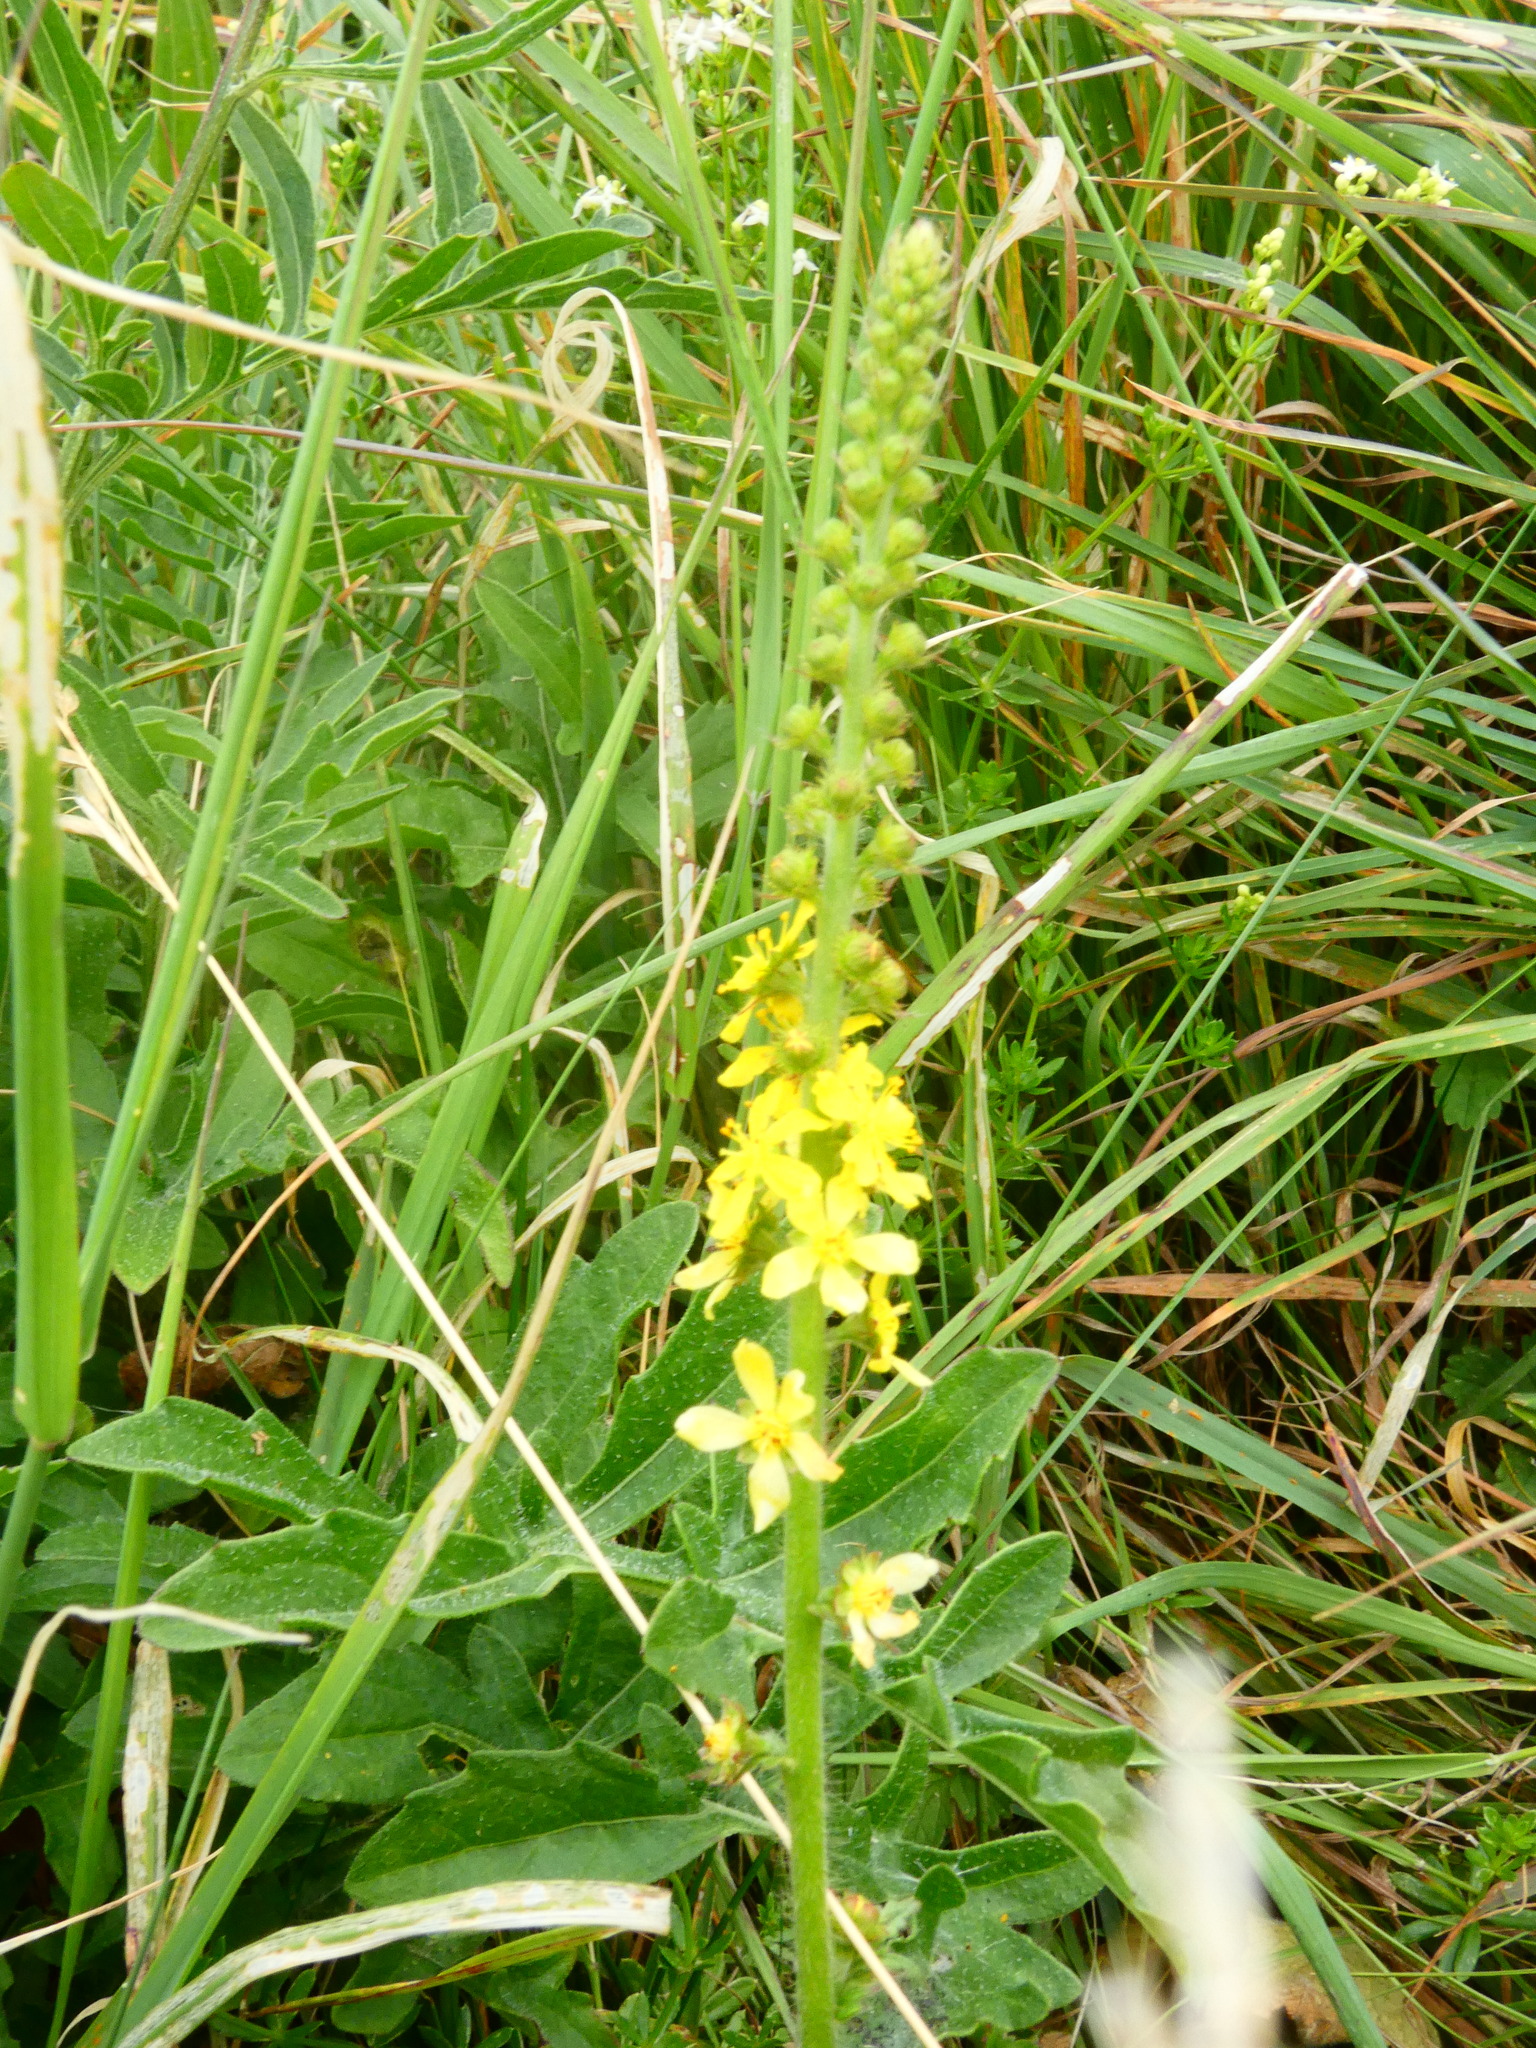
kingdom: Plantae
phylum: Tracheophyta
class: Magnoliopsida
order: Rosales
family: Rosaceae
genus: Agrimonia
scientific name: Agrimonia eupatoria
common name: Agrimony
